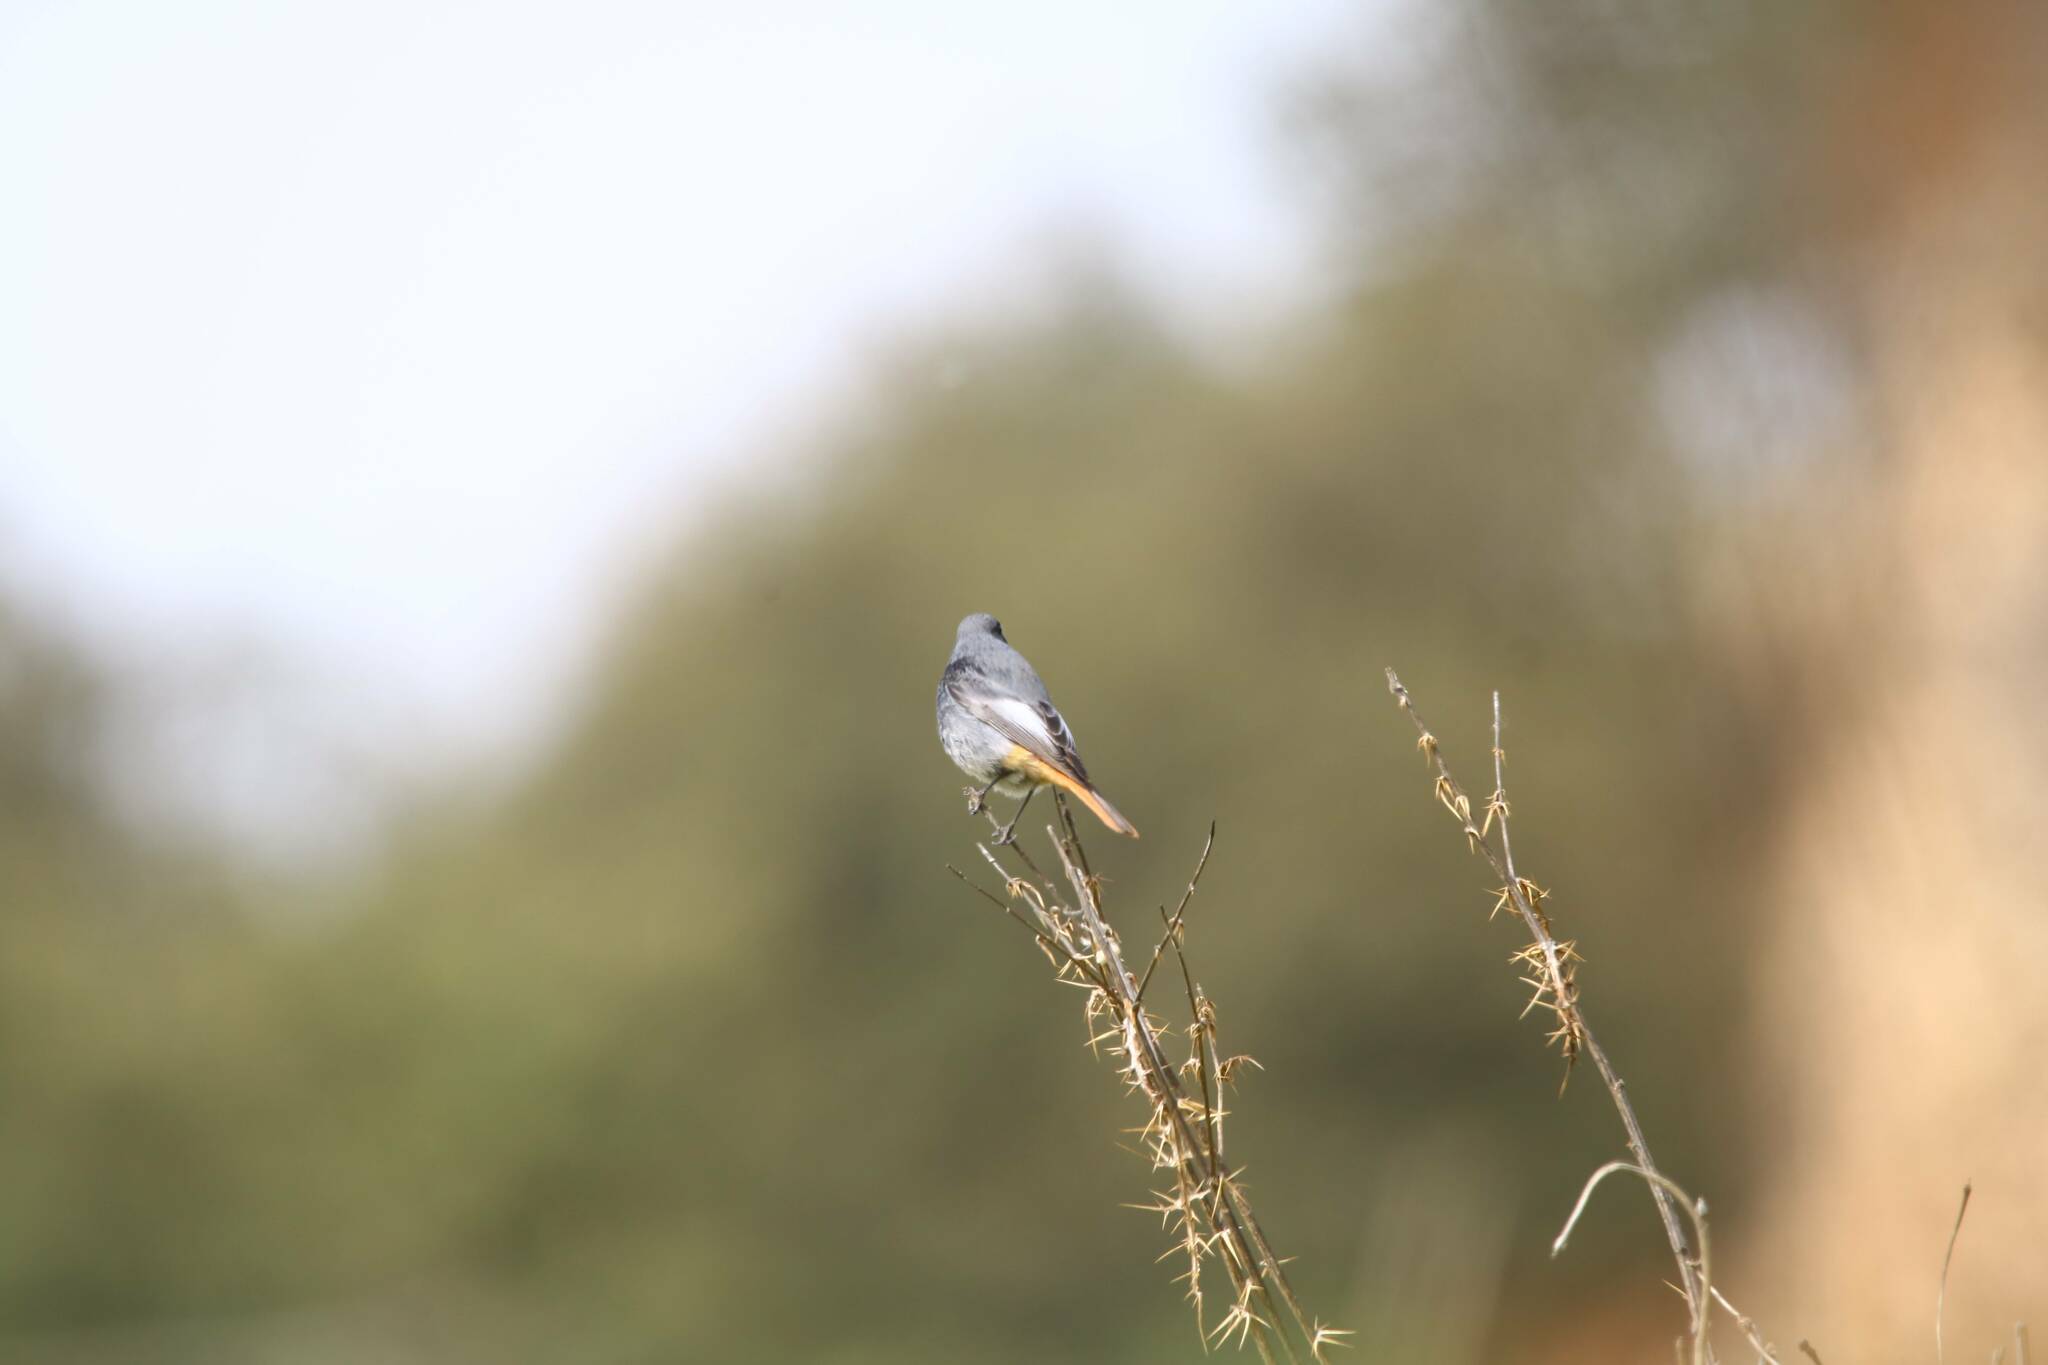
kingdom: Animalia
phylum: Chordata
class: Aves
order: Passeriformes
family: Muscicapidae
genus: Phoenicurus
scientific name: Phoenicurus ochruros
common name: Black redstart
